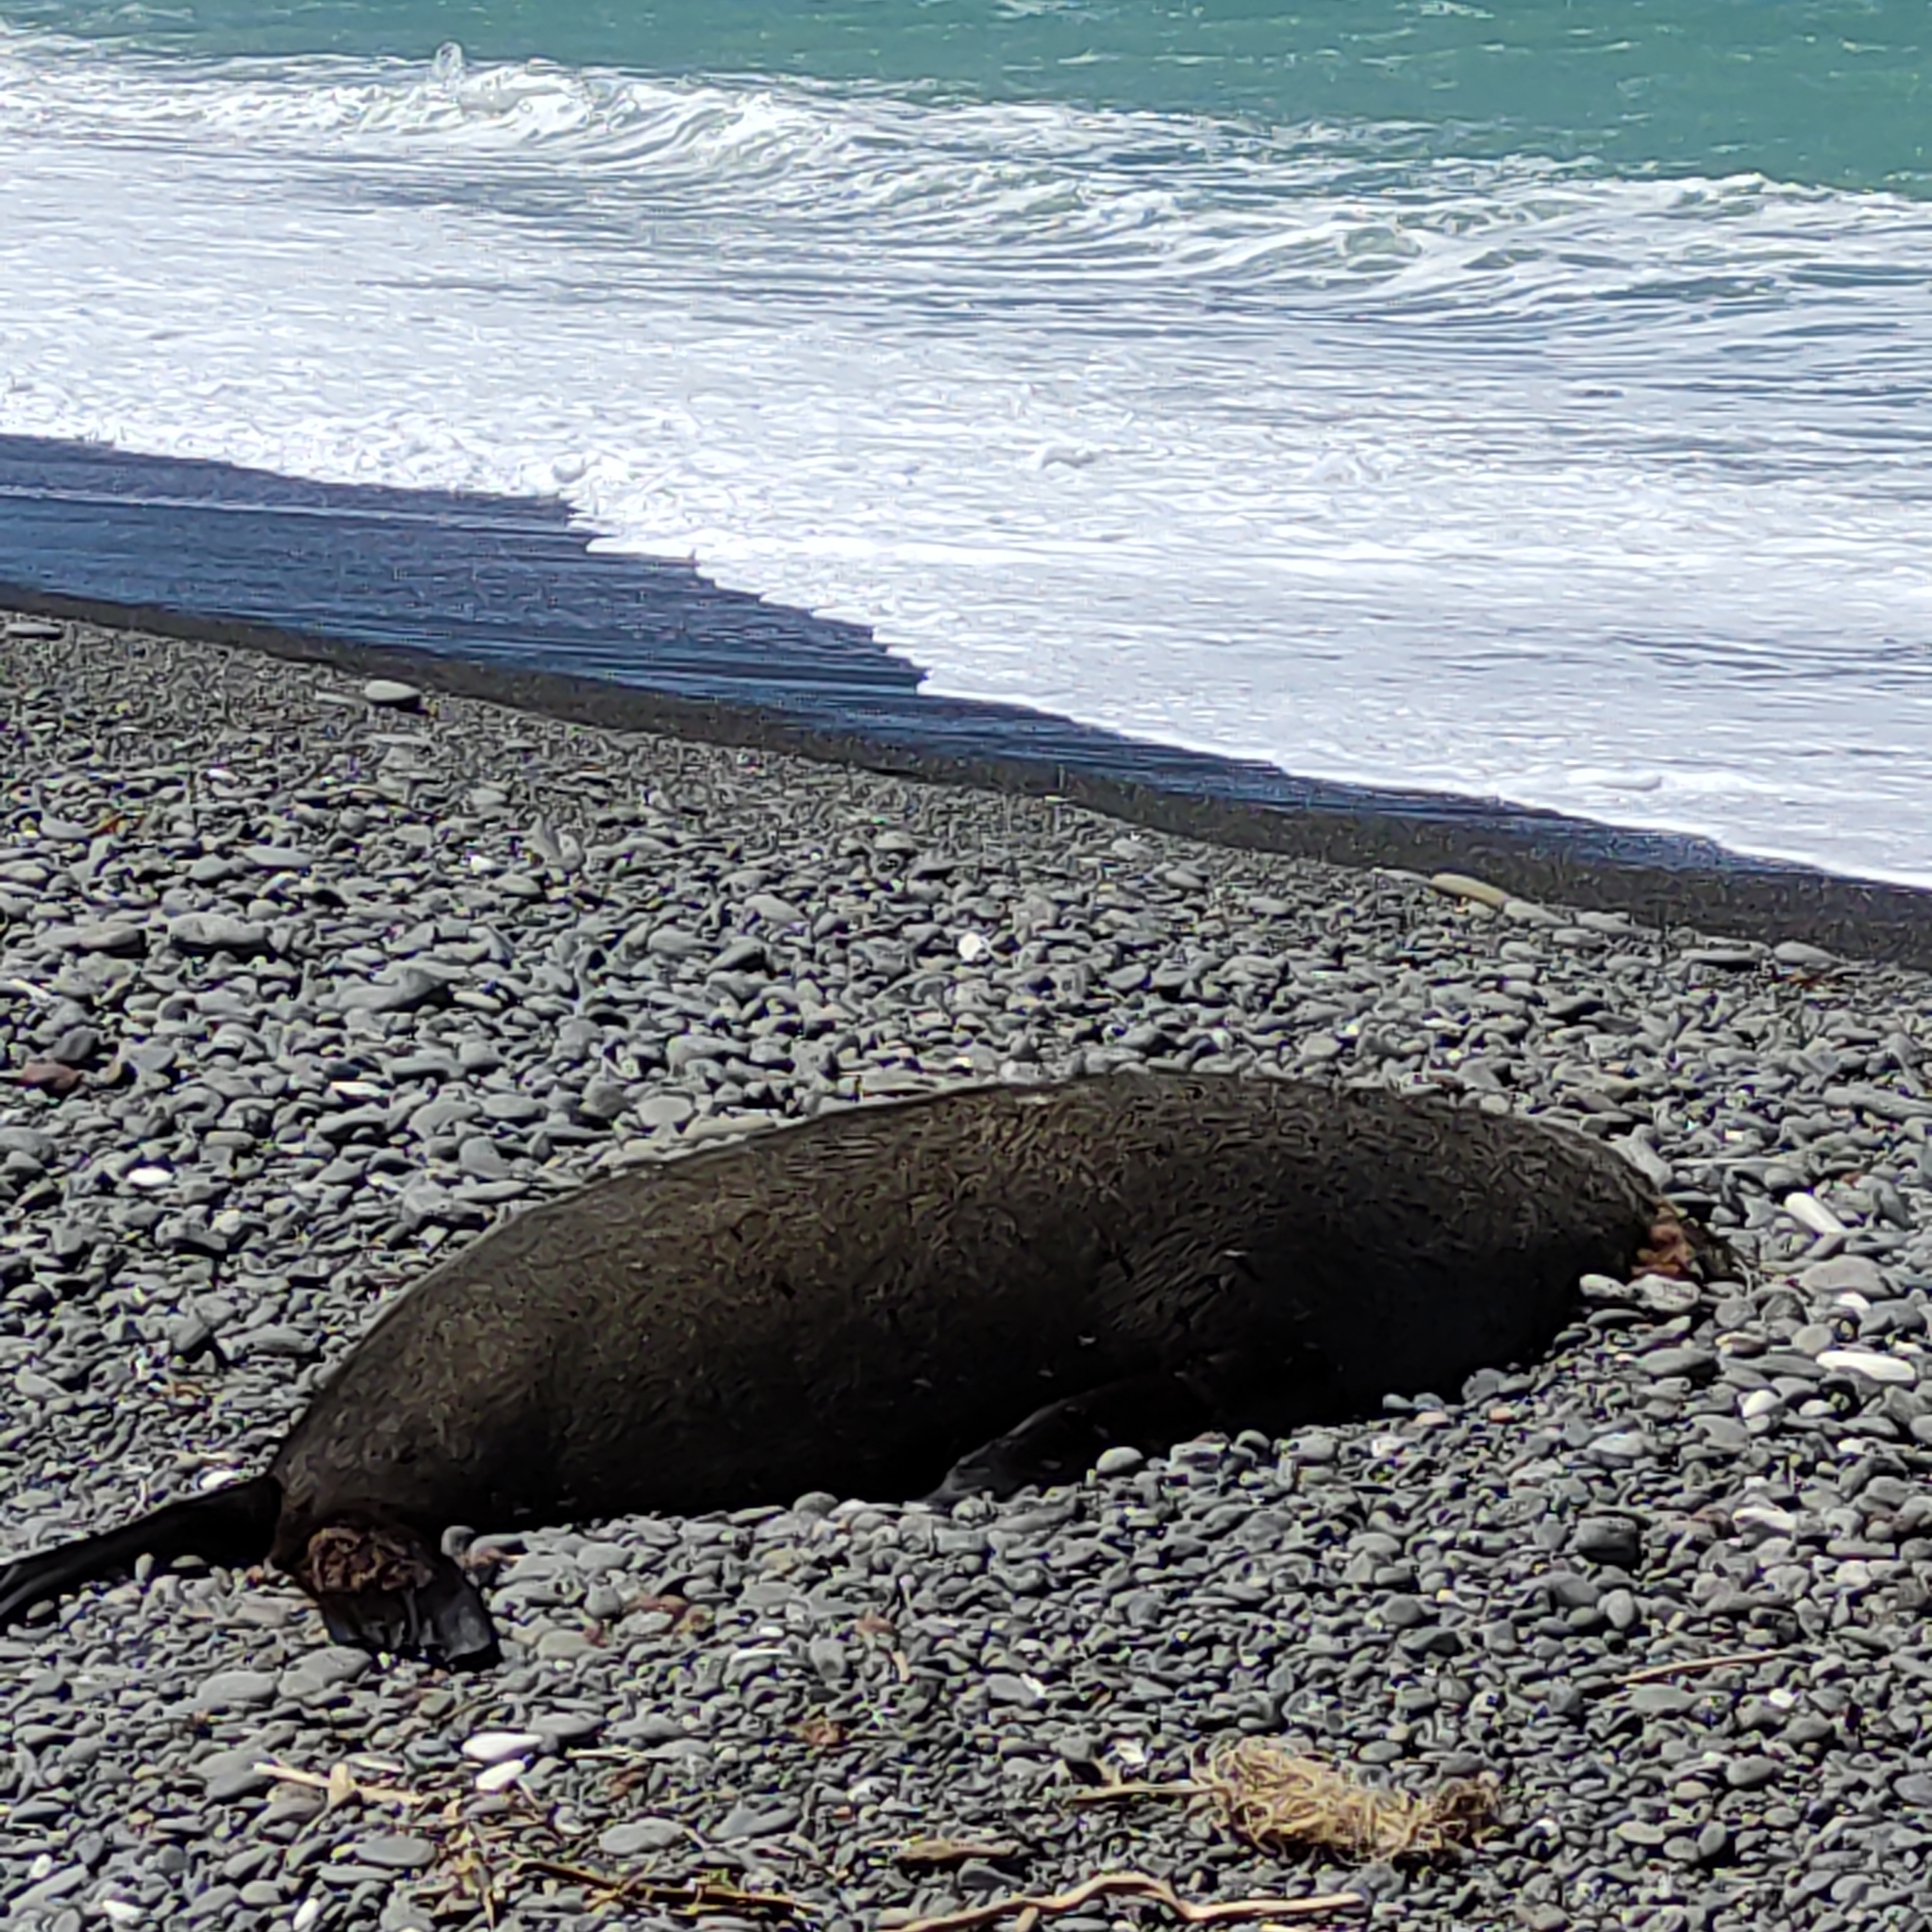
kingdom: Animalia
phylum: Chordata
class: Mammalia
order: Carnivora
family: Otariidae
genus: Arctocephalus
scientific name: Arctocephalus forsteri
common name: New zealand fur seal
